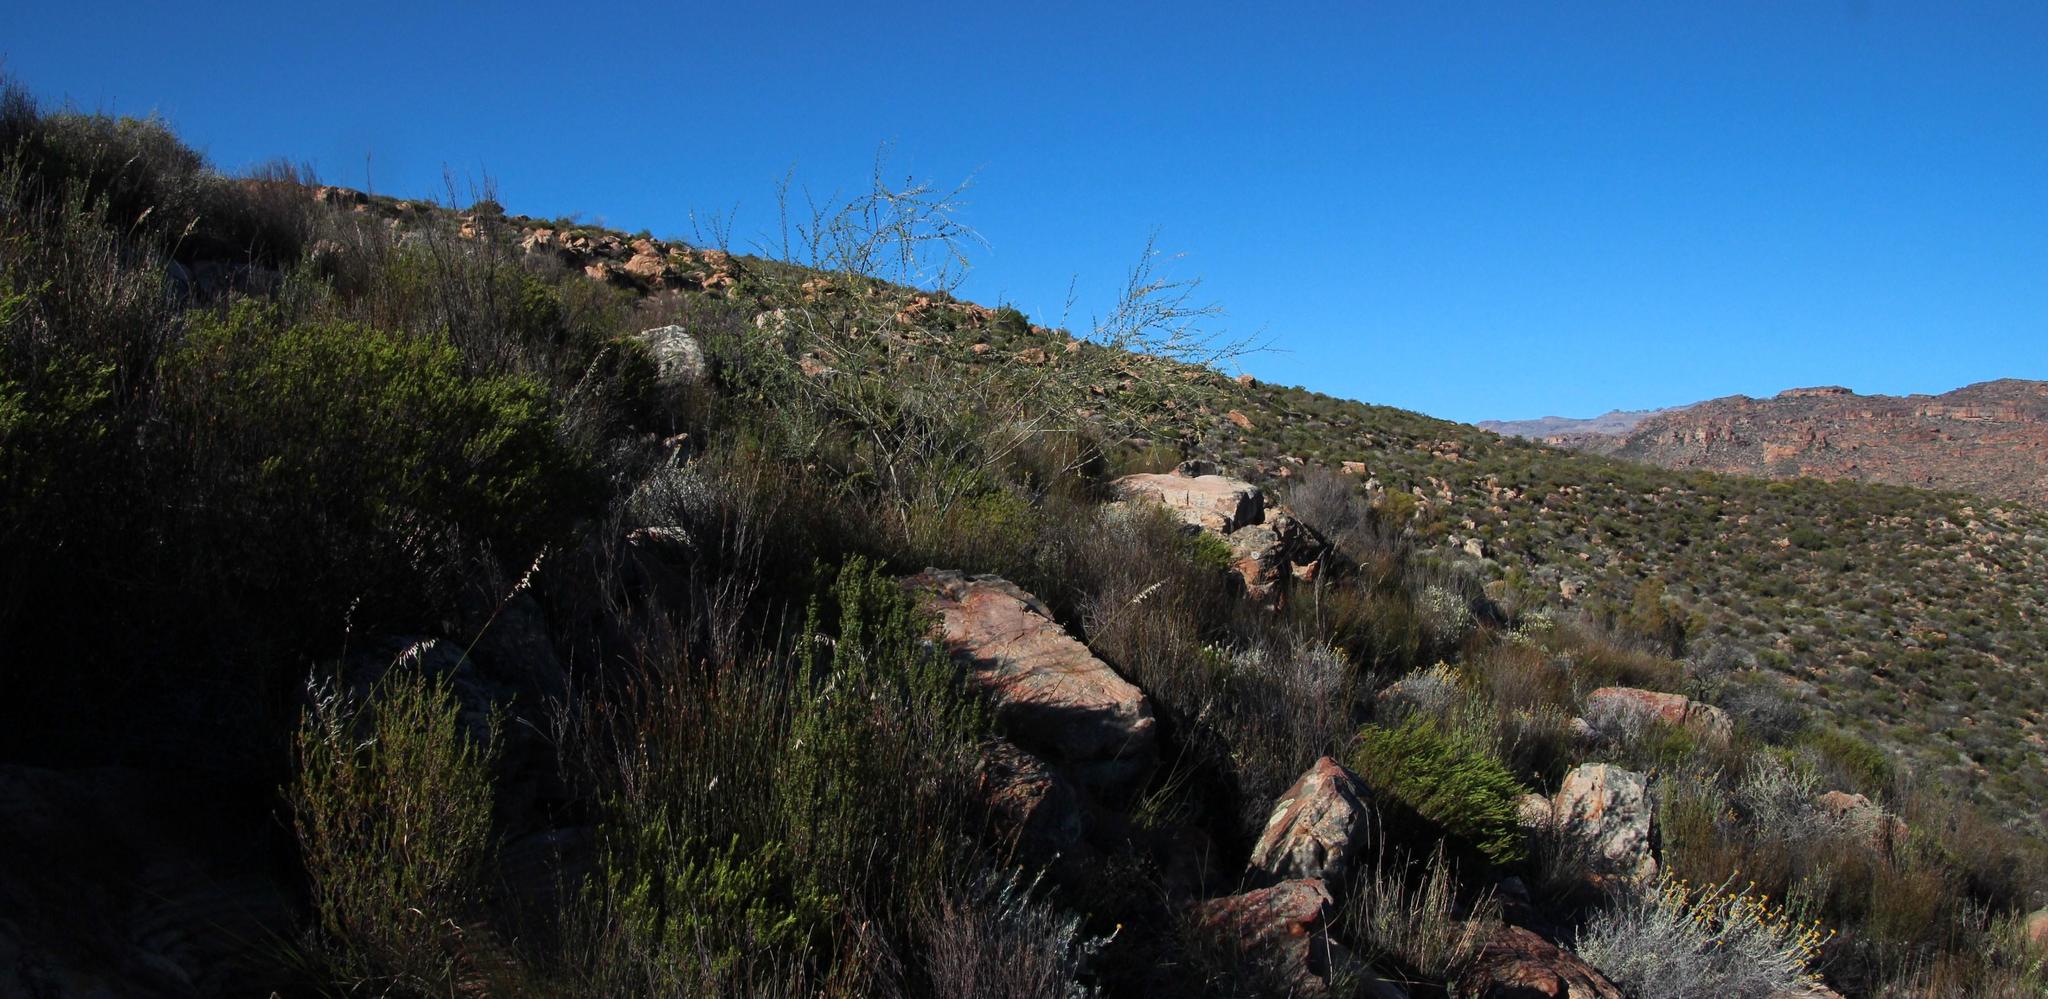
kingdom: Plantae
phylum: Tracheophyta
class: Magnoliopsida
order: Fabales
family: Fabaceae
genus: Wiborgia
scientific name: Wiborgia obcordata
